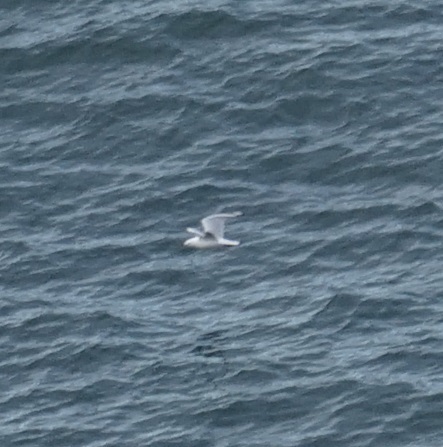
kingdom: Animalia
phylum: Chordata
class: Aves
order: Charadriiformes
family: Laridae
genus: Chroicocephalus
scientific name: Chroicocephalus novaehollandiae
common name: Silver gull
